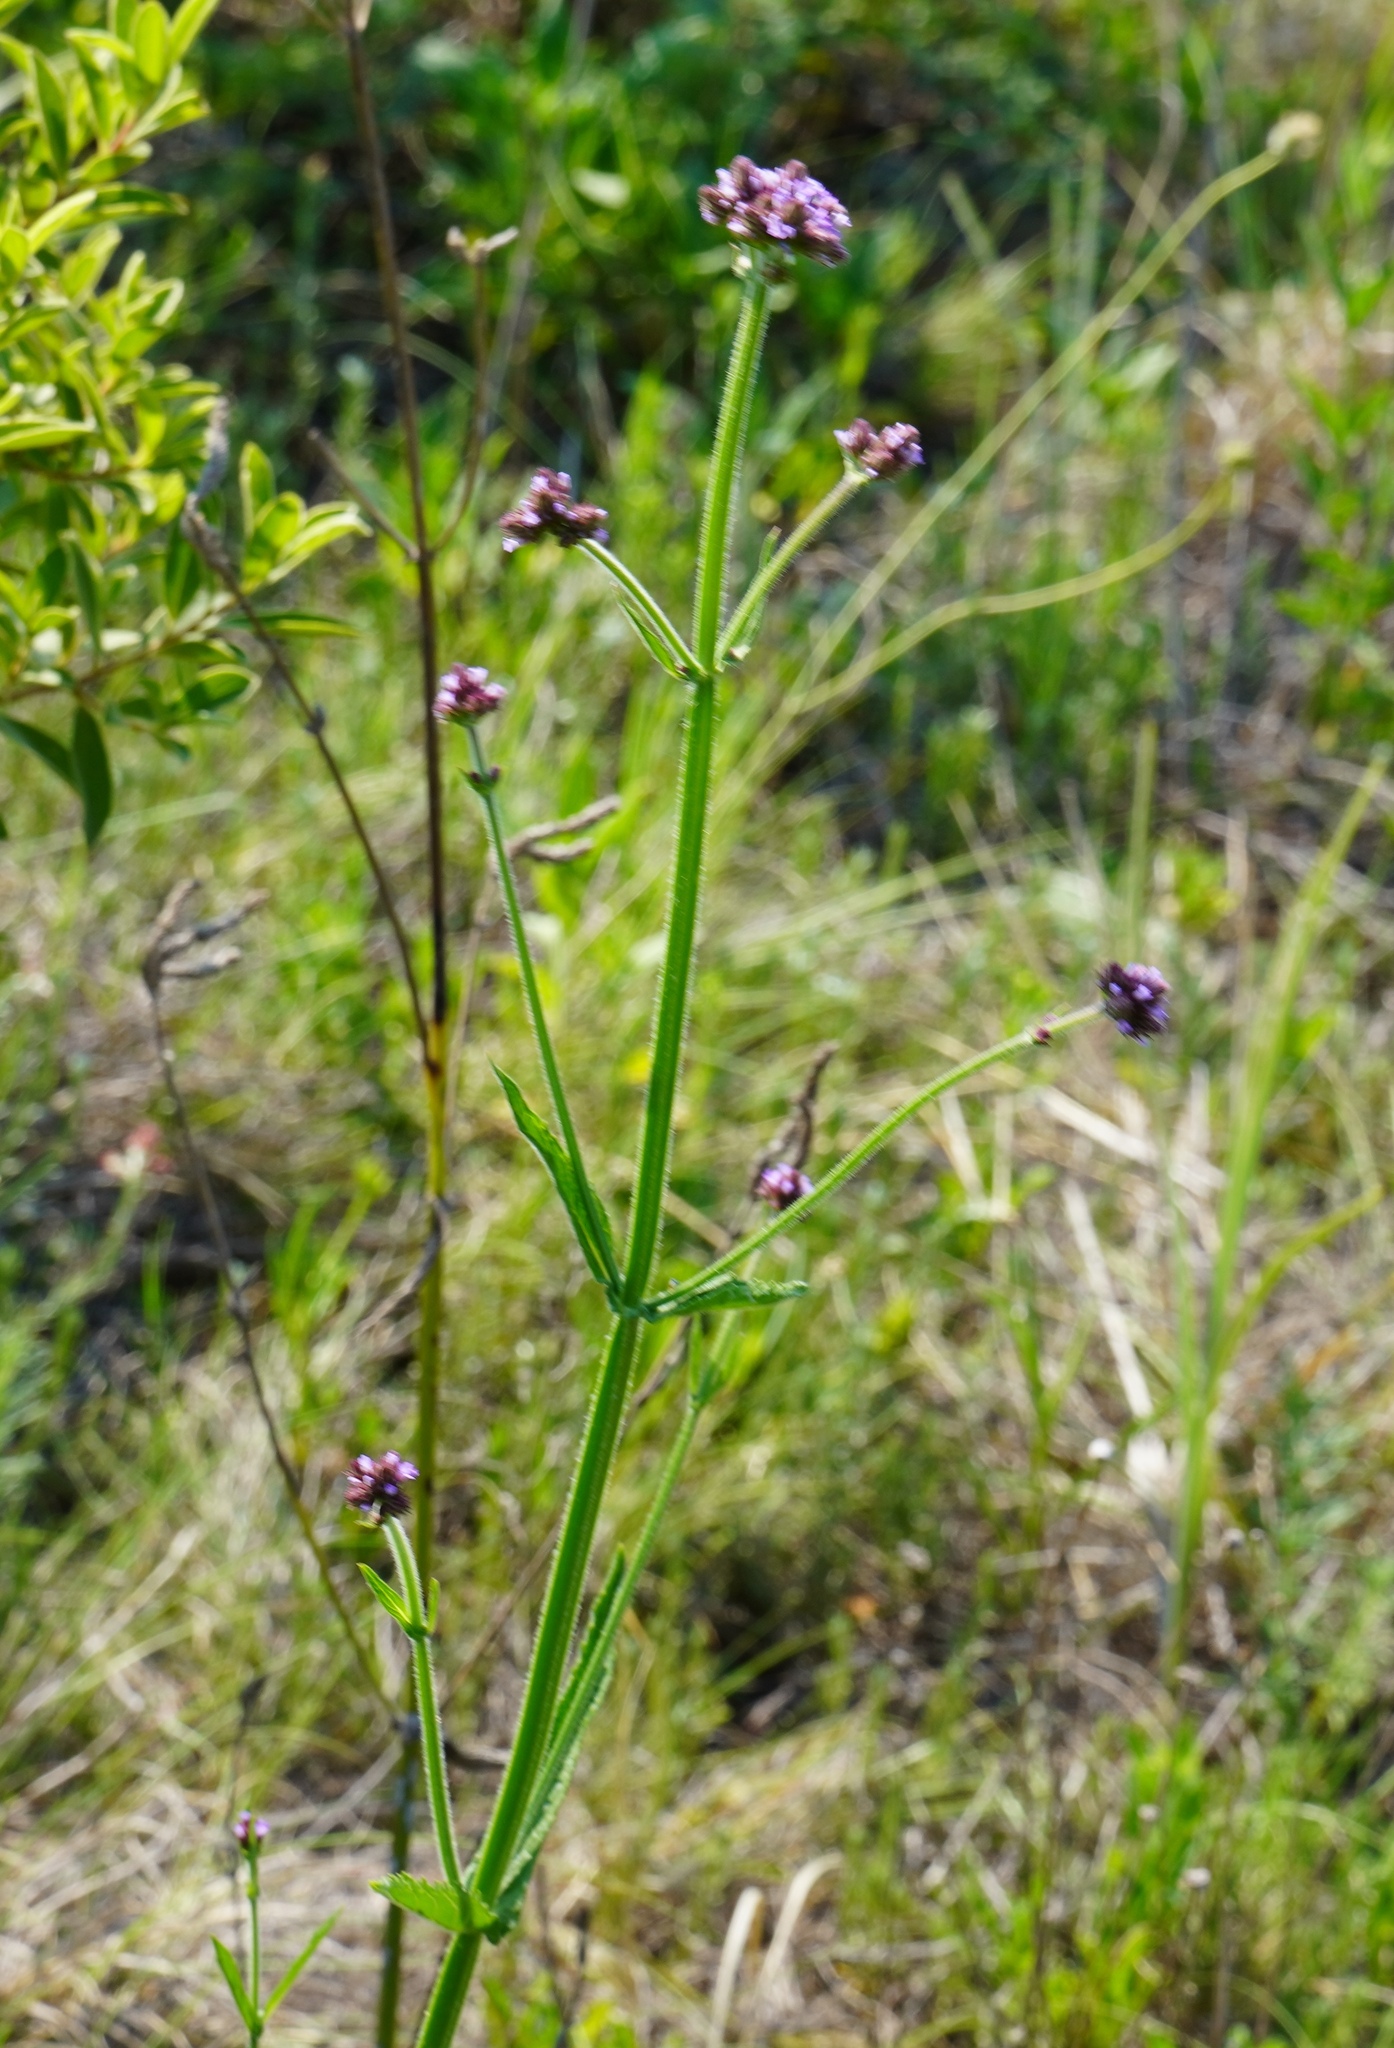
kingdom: Plantae
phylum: Tracheophyta
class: Magnoliopsida
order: Lamiales
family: Verbenaceae
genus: Verbena
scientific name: Verbena bonariensis
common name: Purpletop vervain
